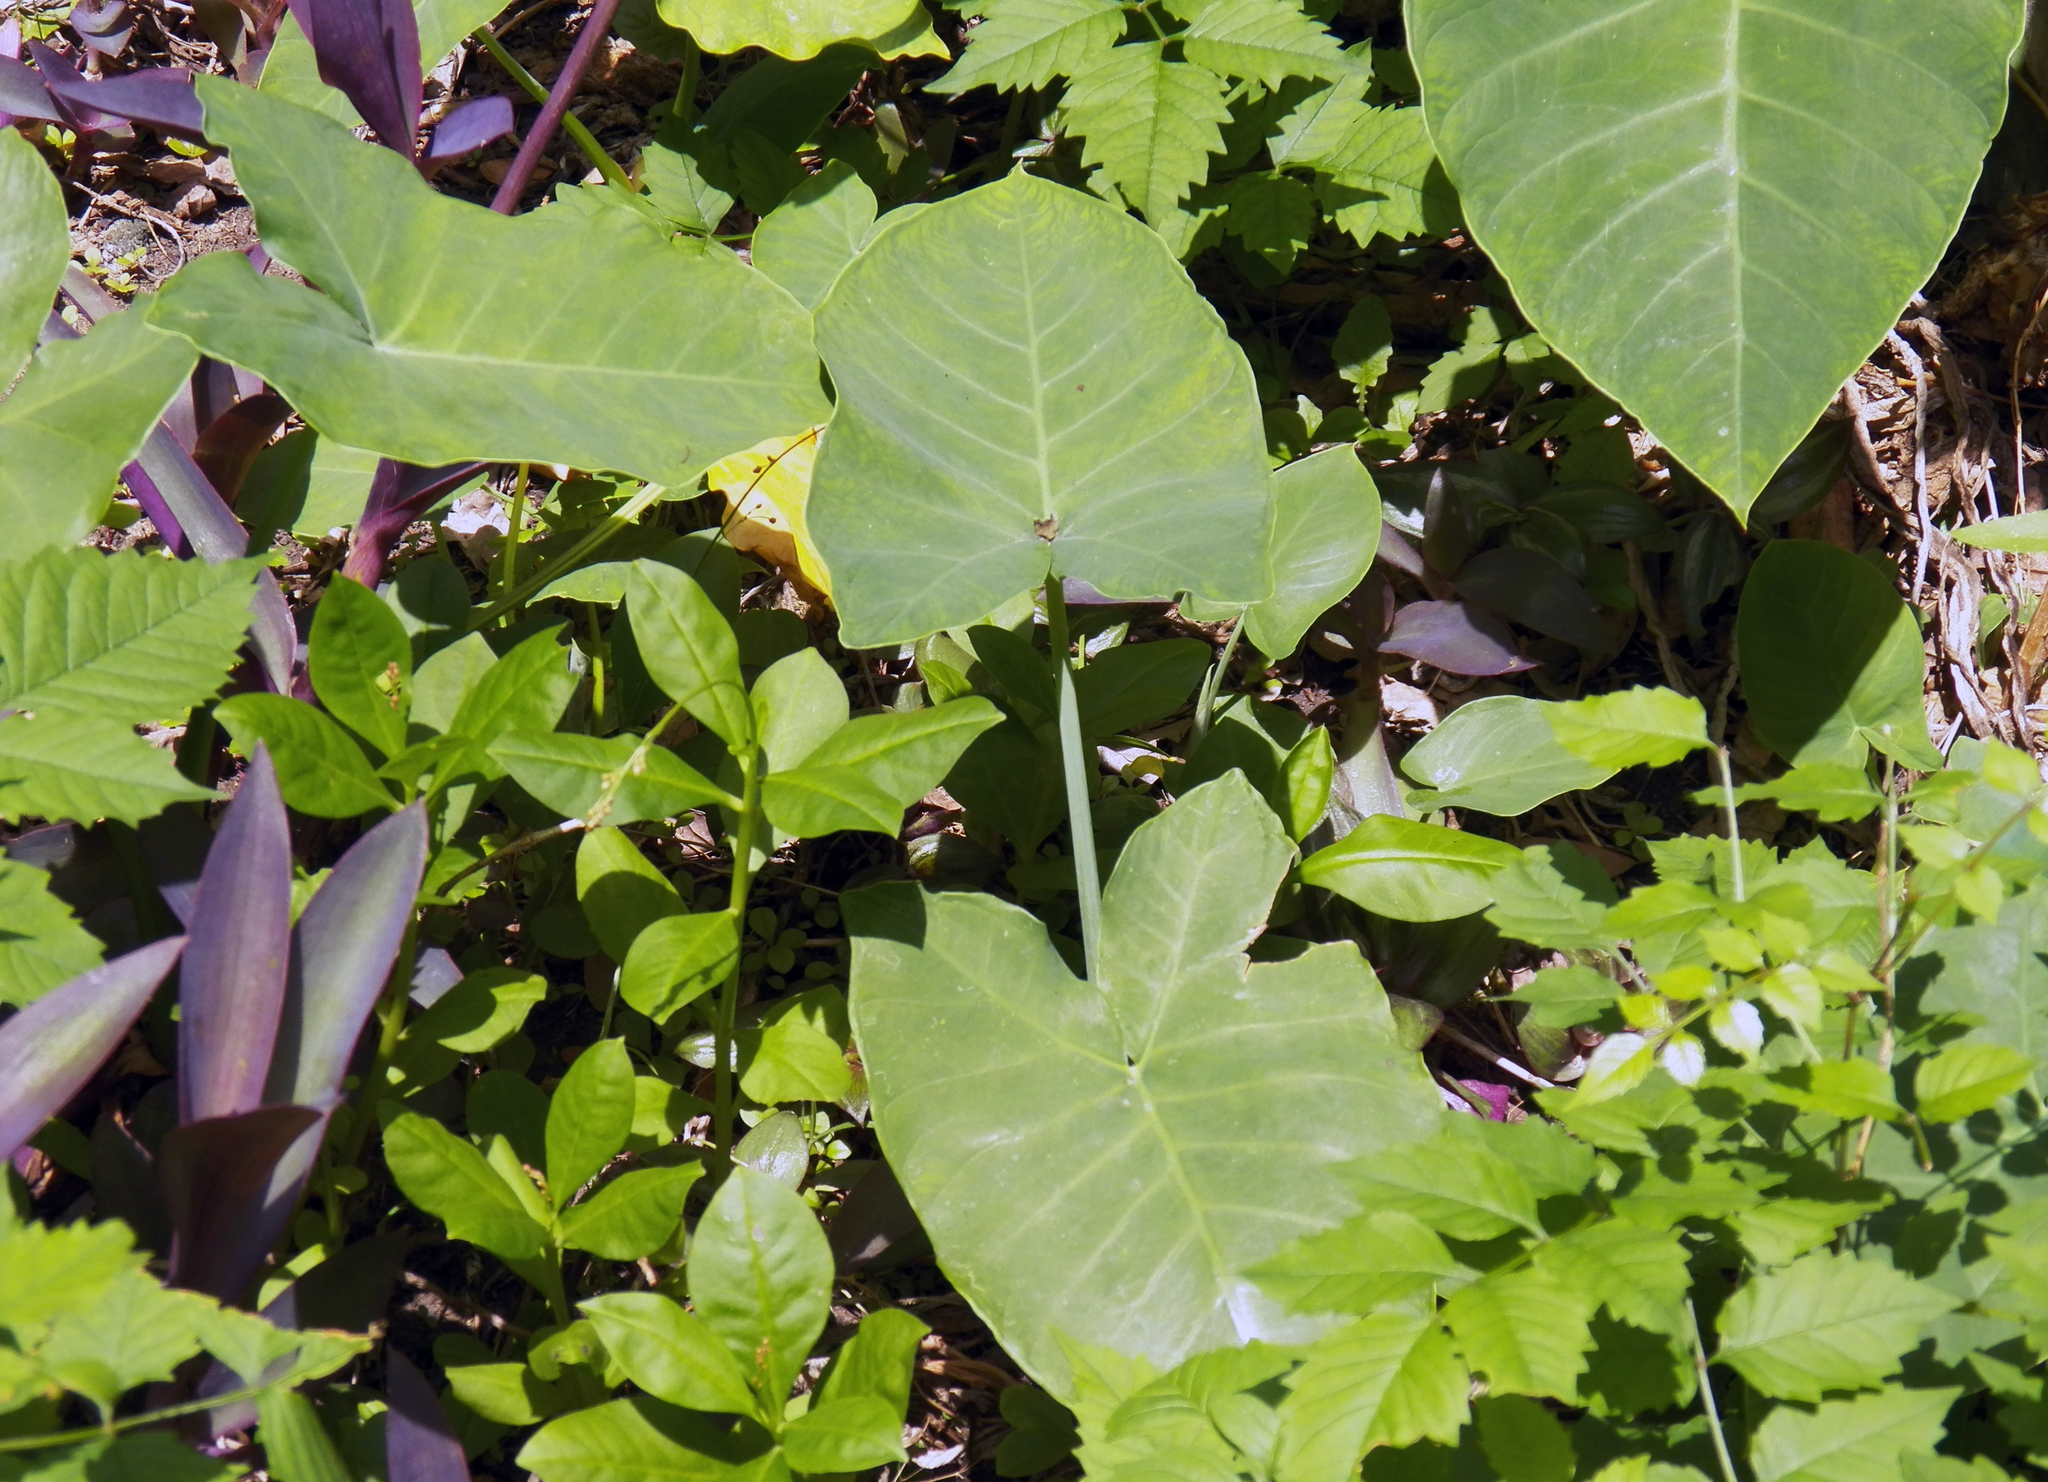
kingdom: Plantae
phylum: Tracheophyta
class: Liliopsida
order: Alismatales
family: Araceae
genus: Colocasia
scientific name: Colocasia esculenta
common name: Taro
